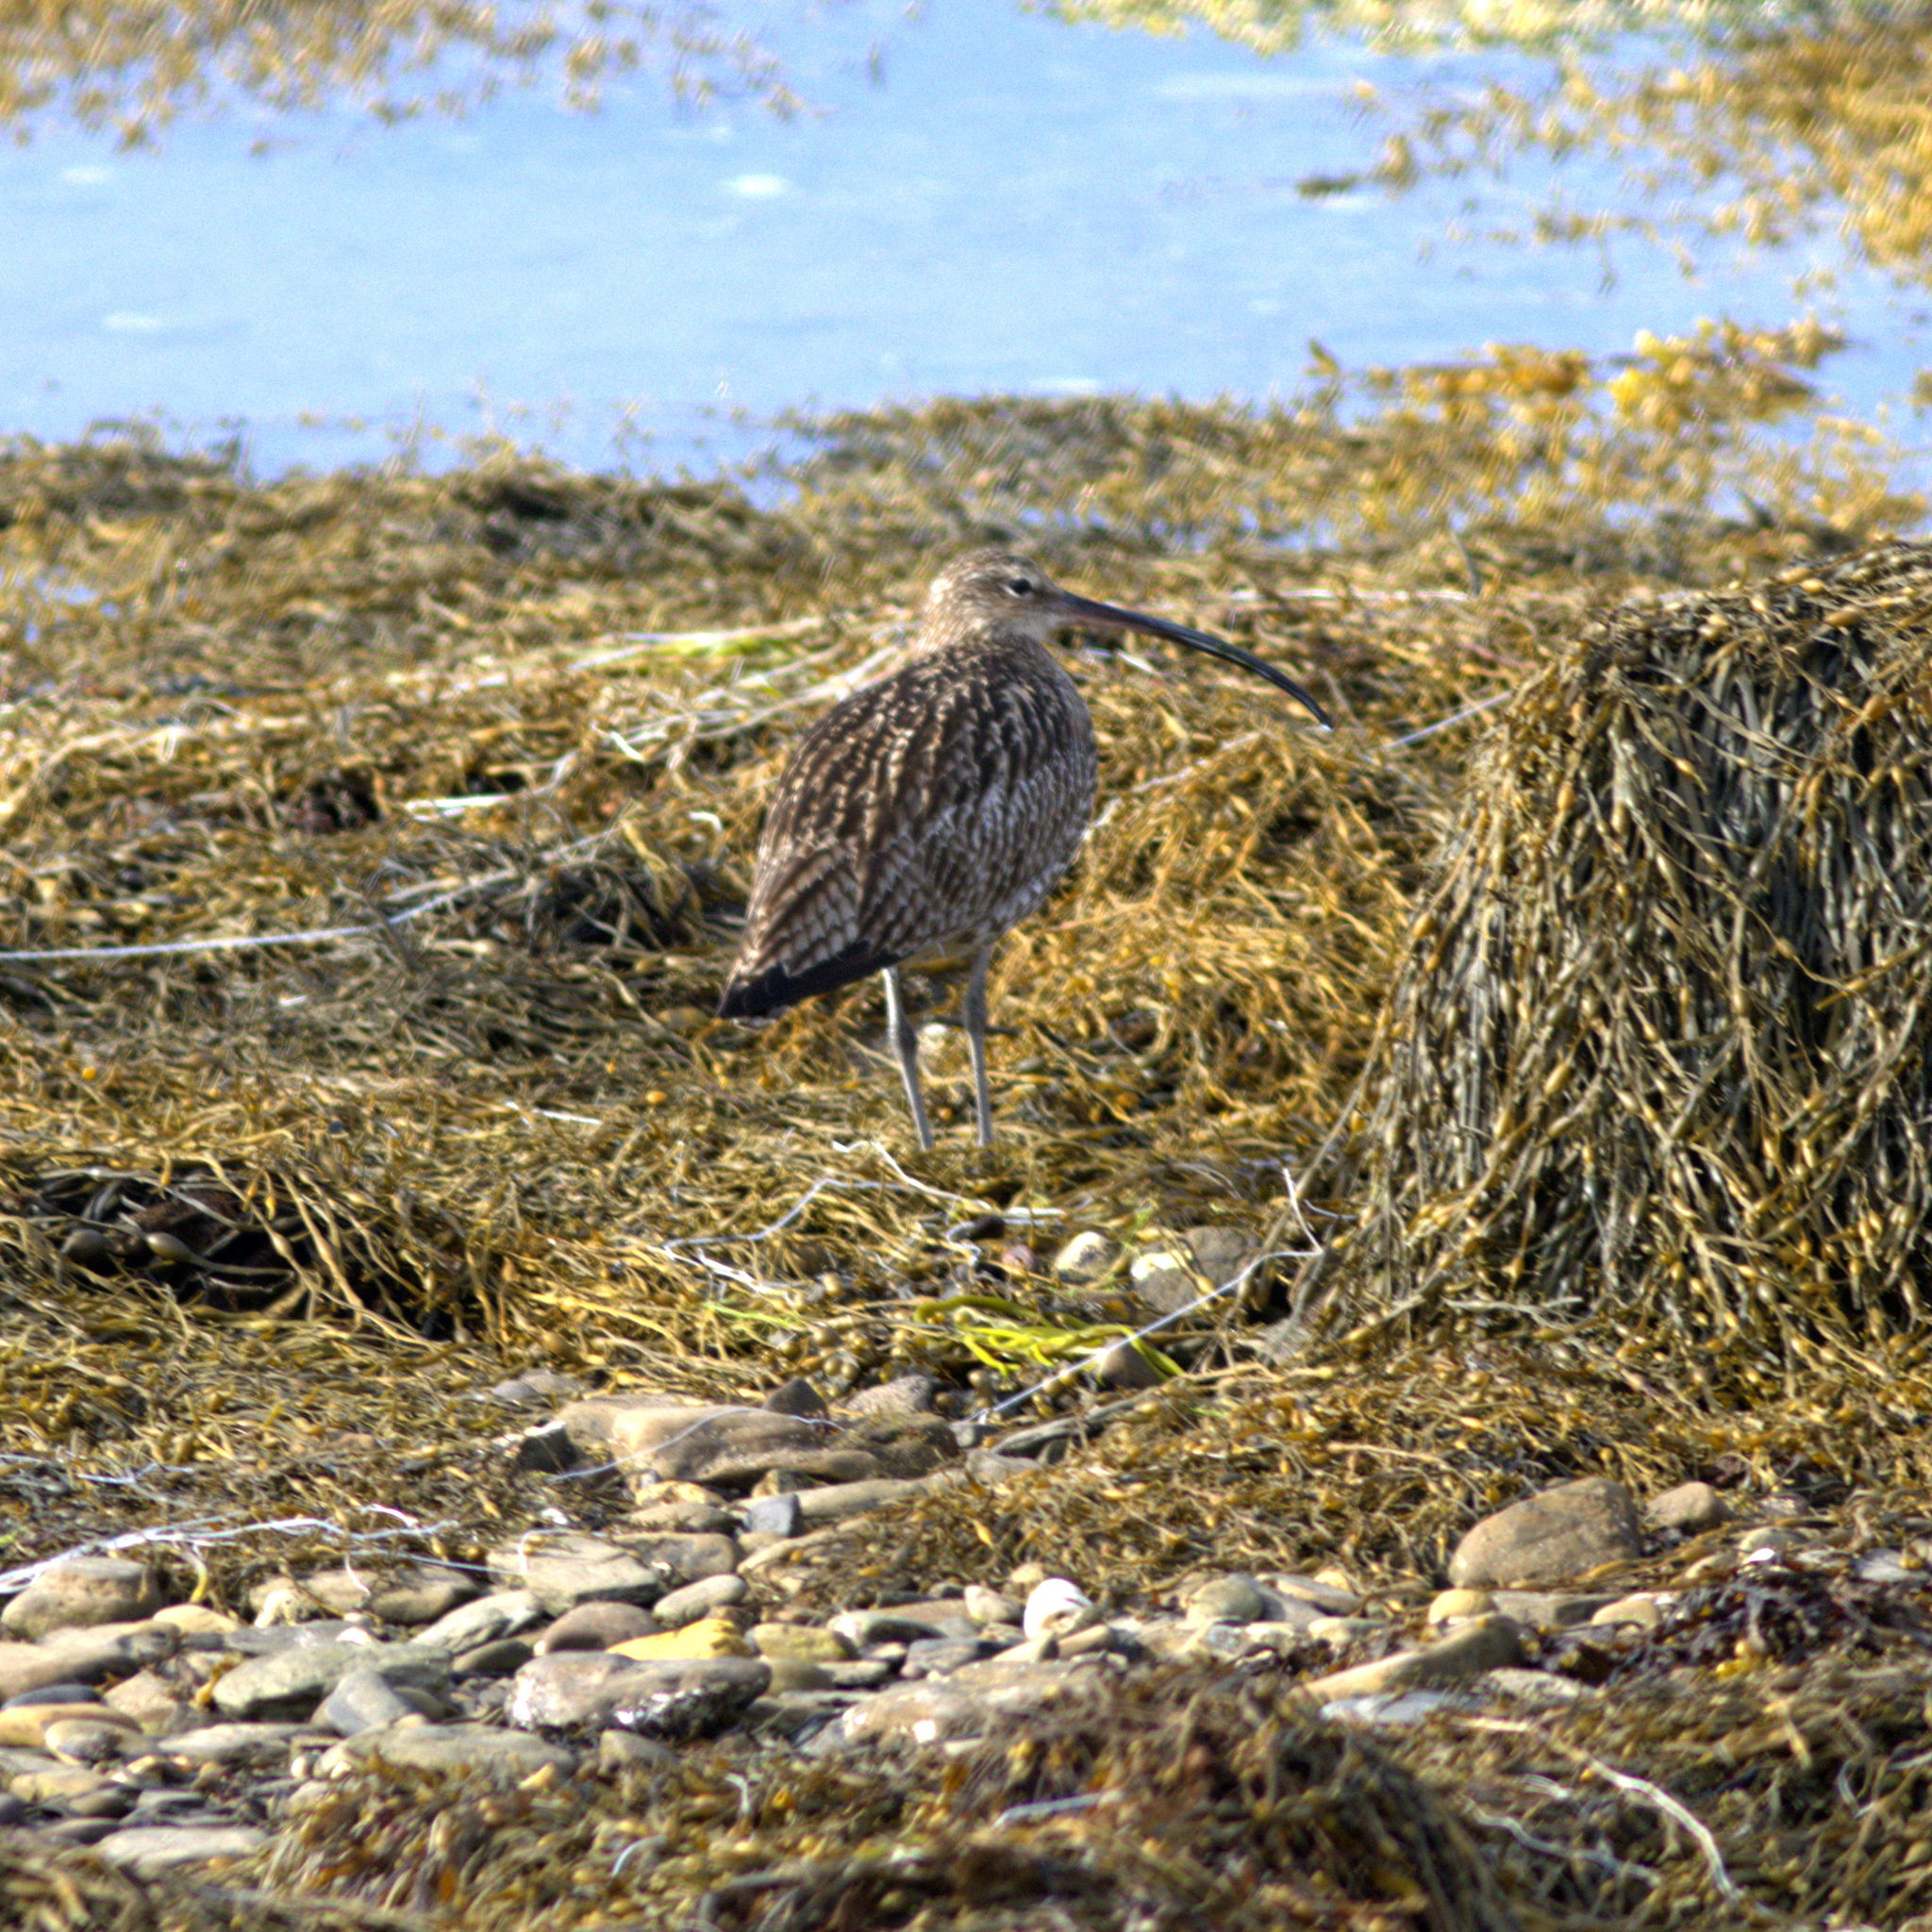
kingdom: Animalia
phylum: Chordata
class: Aves
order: Charadriiformes
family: Scolopacidae
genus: Numenius
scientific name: Numenius arquata
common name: Eurasian curlew
